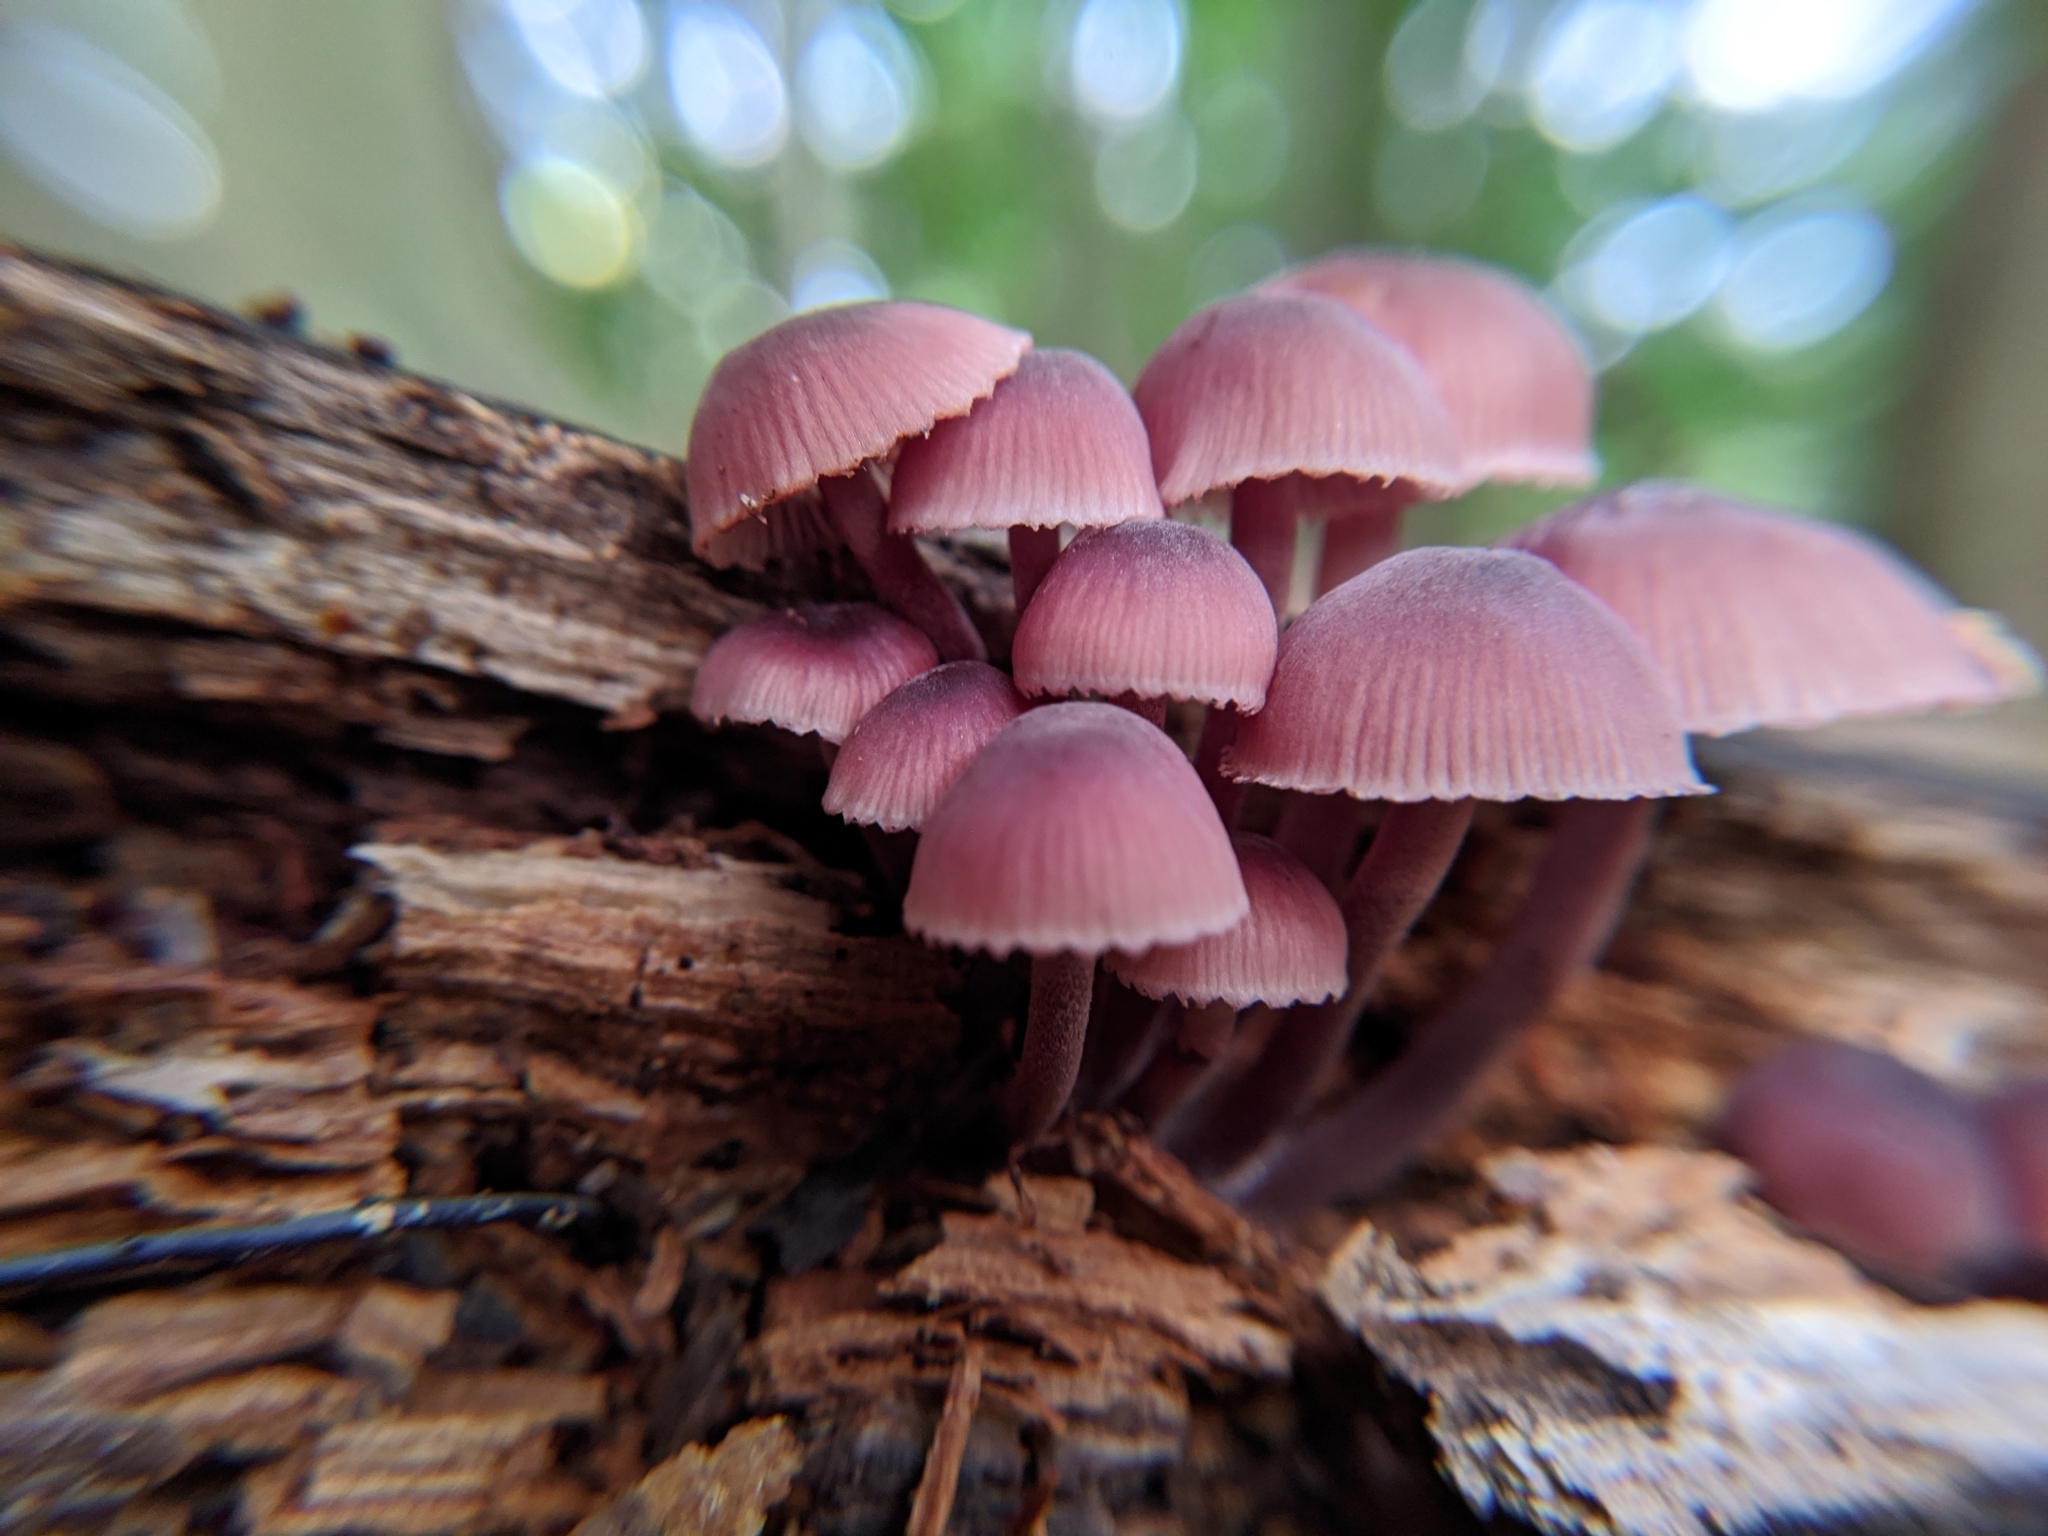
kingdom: Fungi
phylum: Basidiomycota
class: Agaricomycetes
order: Agaricales
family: Mycenaceae
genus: Mycena
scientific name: Mycena haematopus
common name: Burgundydrop bonnet
